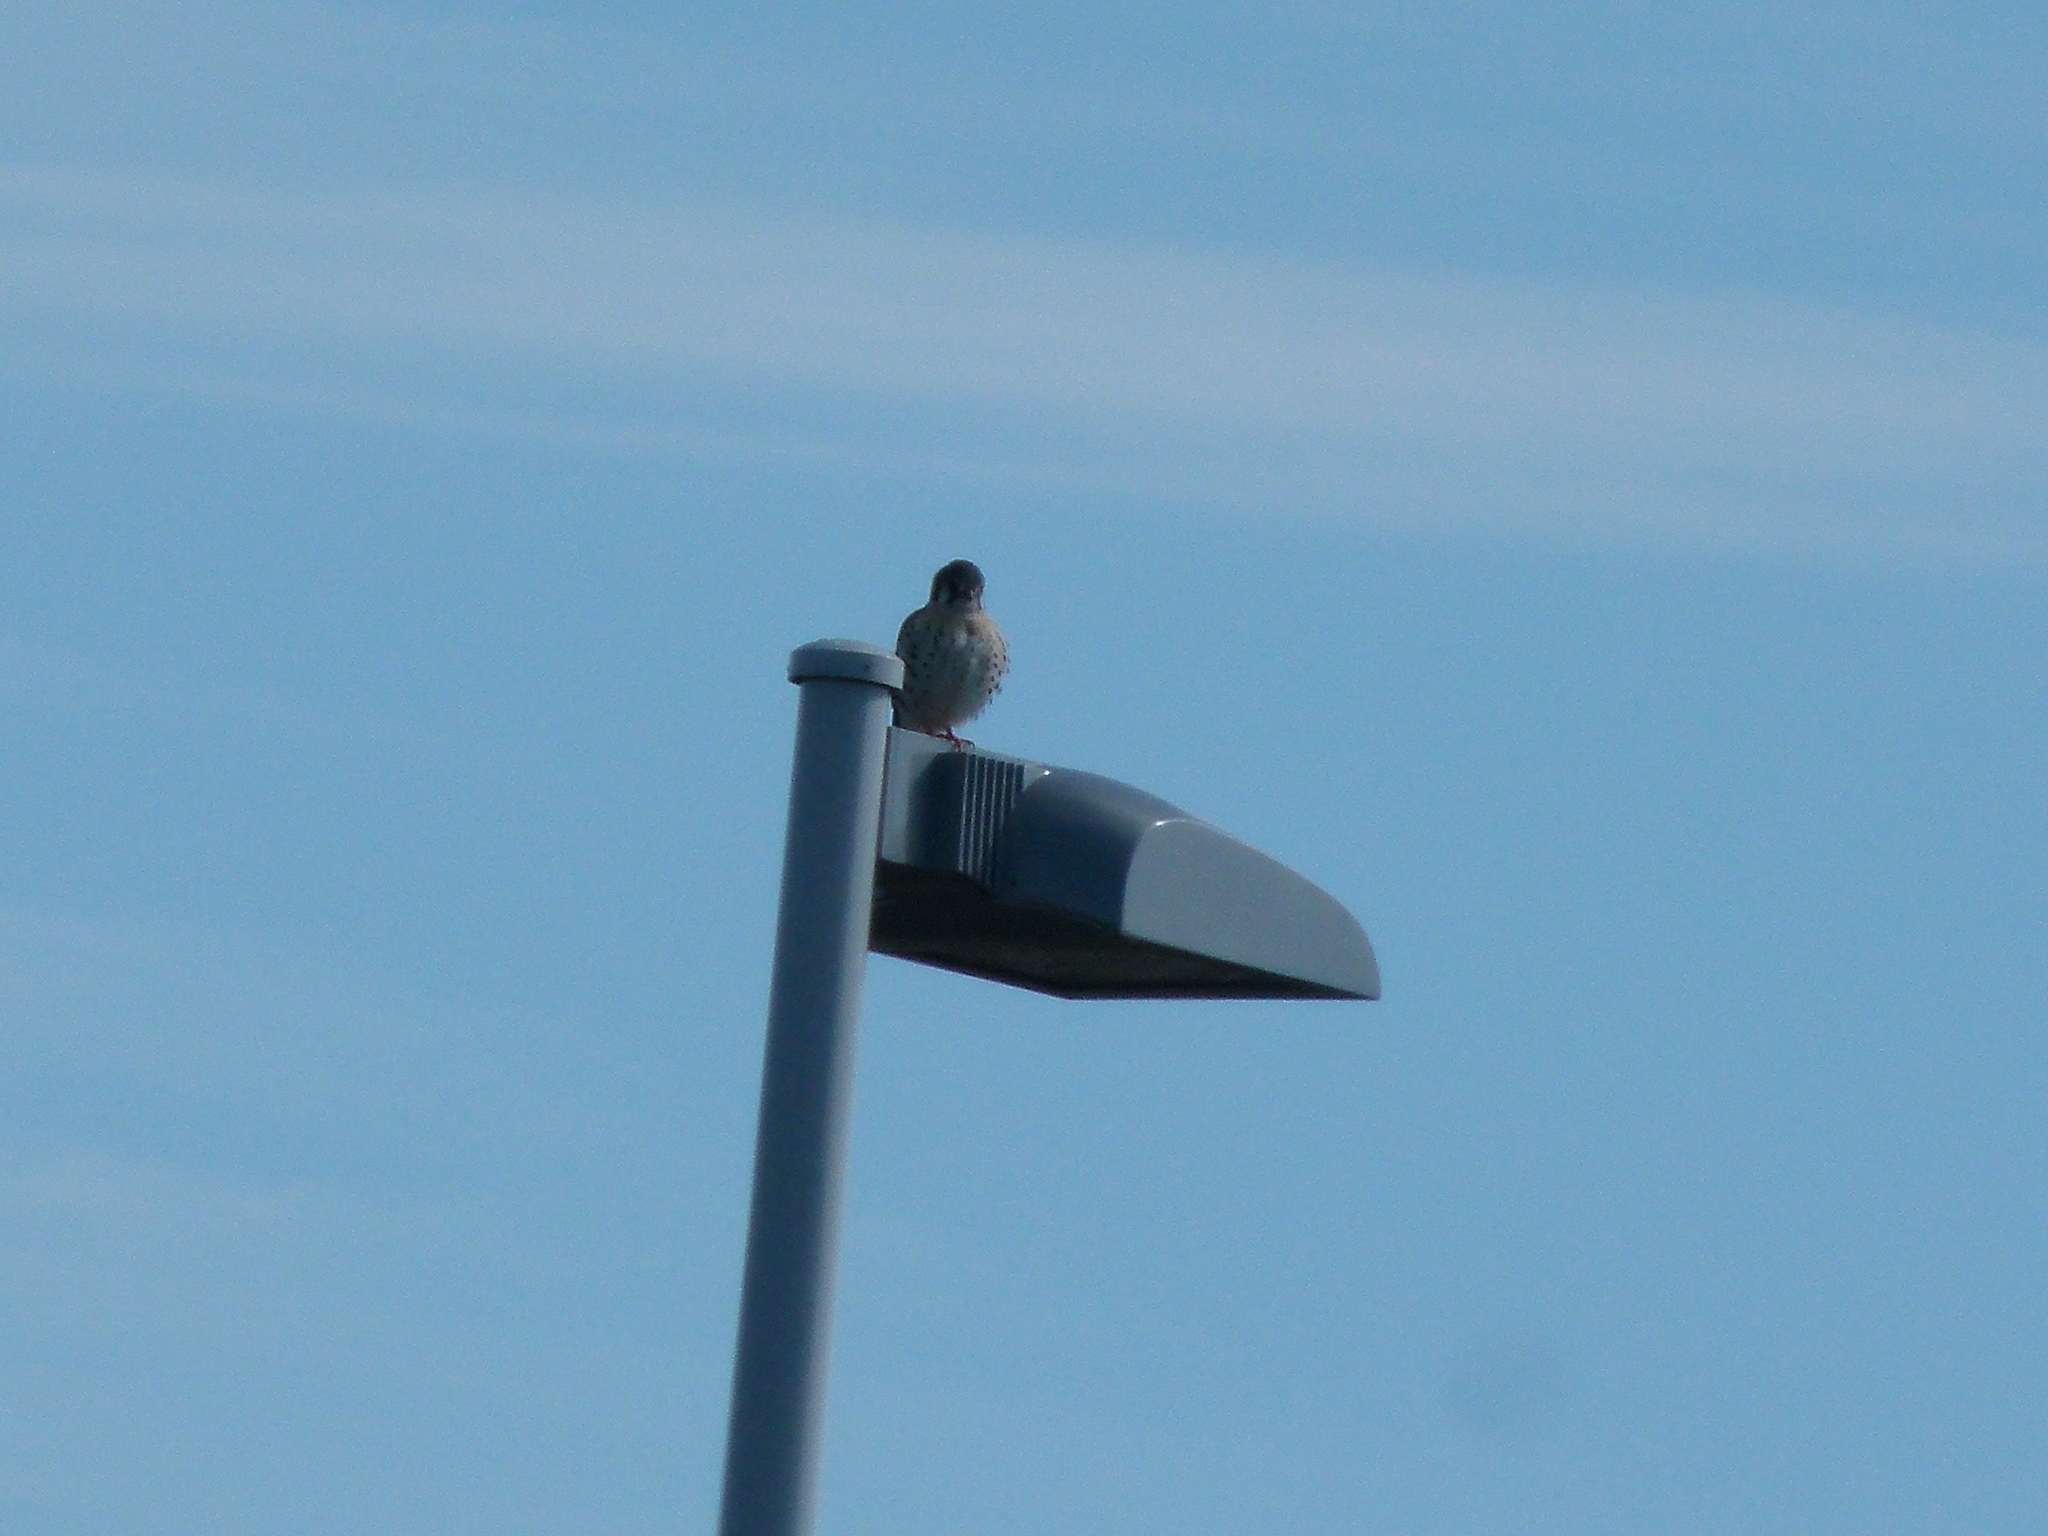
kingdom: Animalia
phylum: Chordata
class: Aves
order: Falconiformes
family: Falconidae
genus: Falco
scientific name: Falco sparverius
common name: American kestrel
